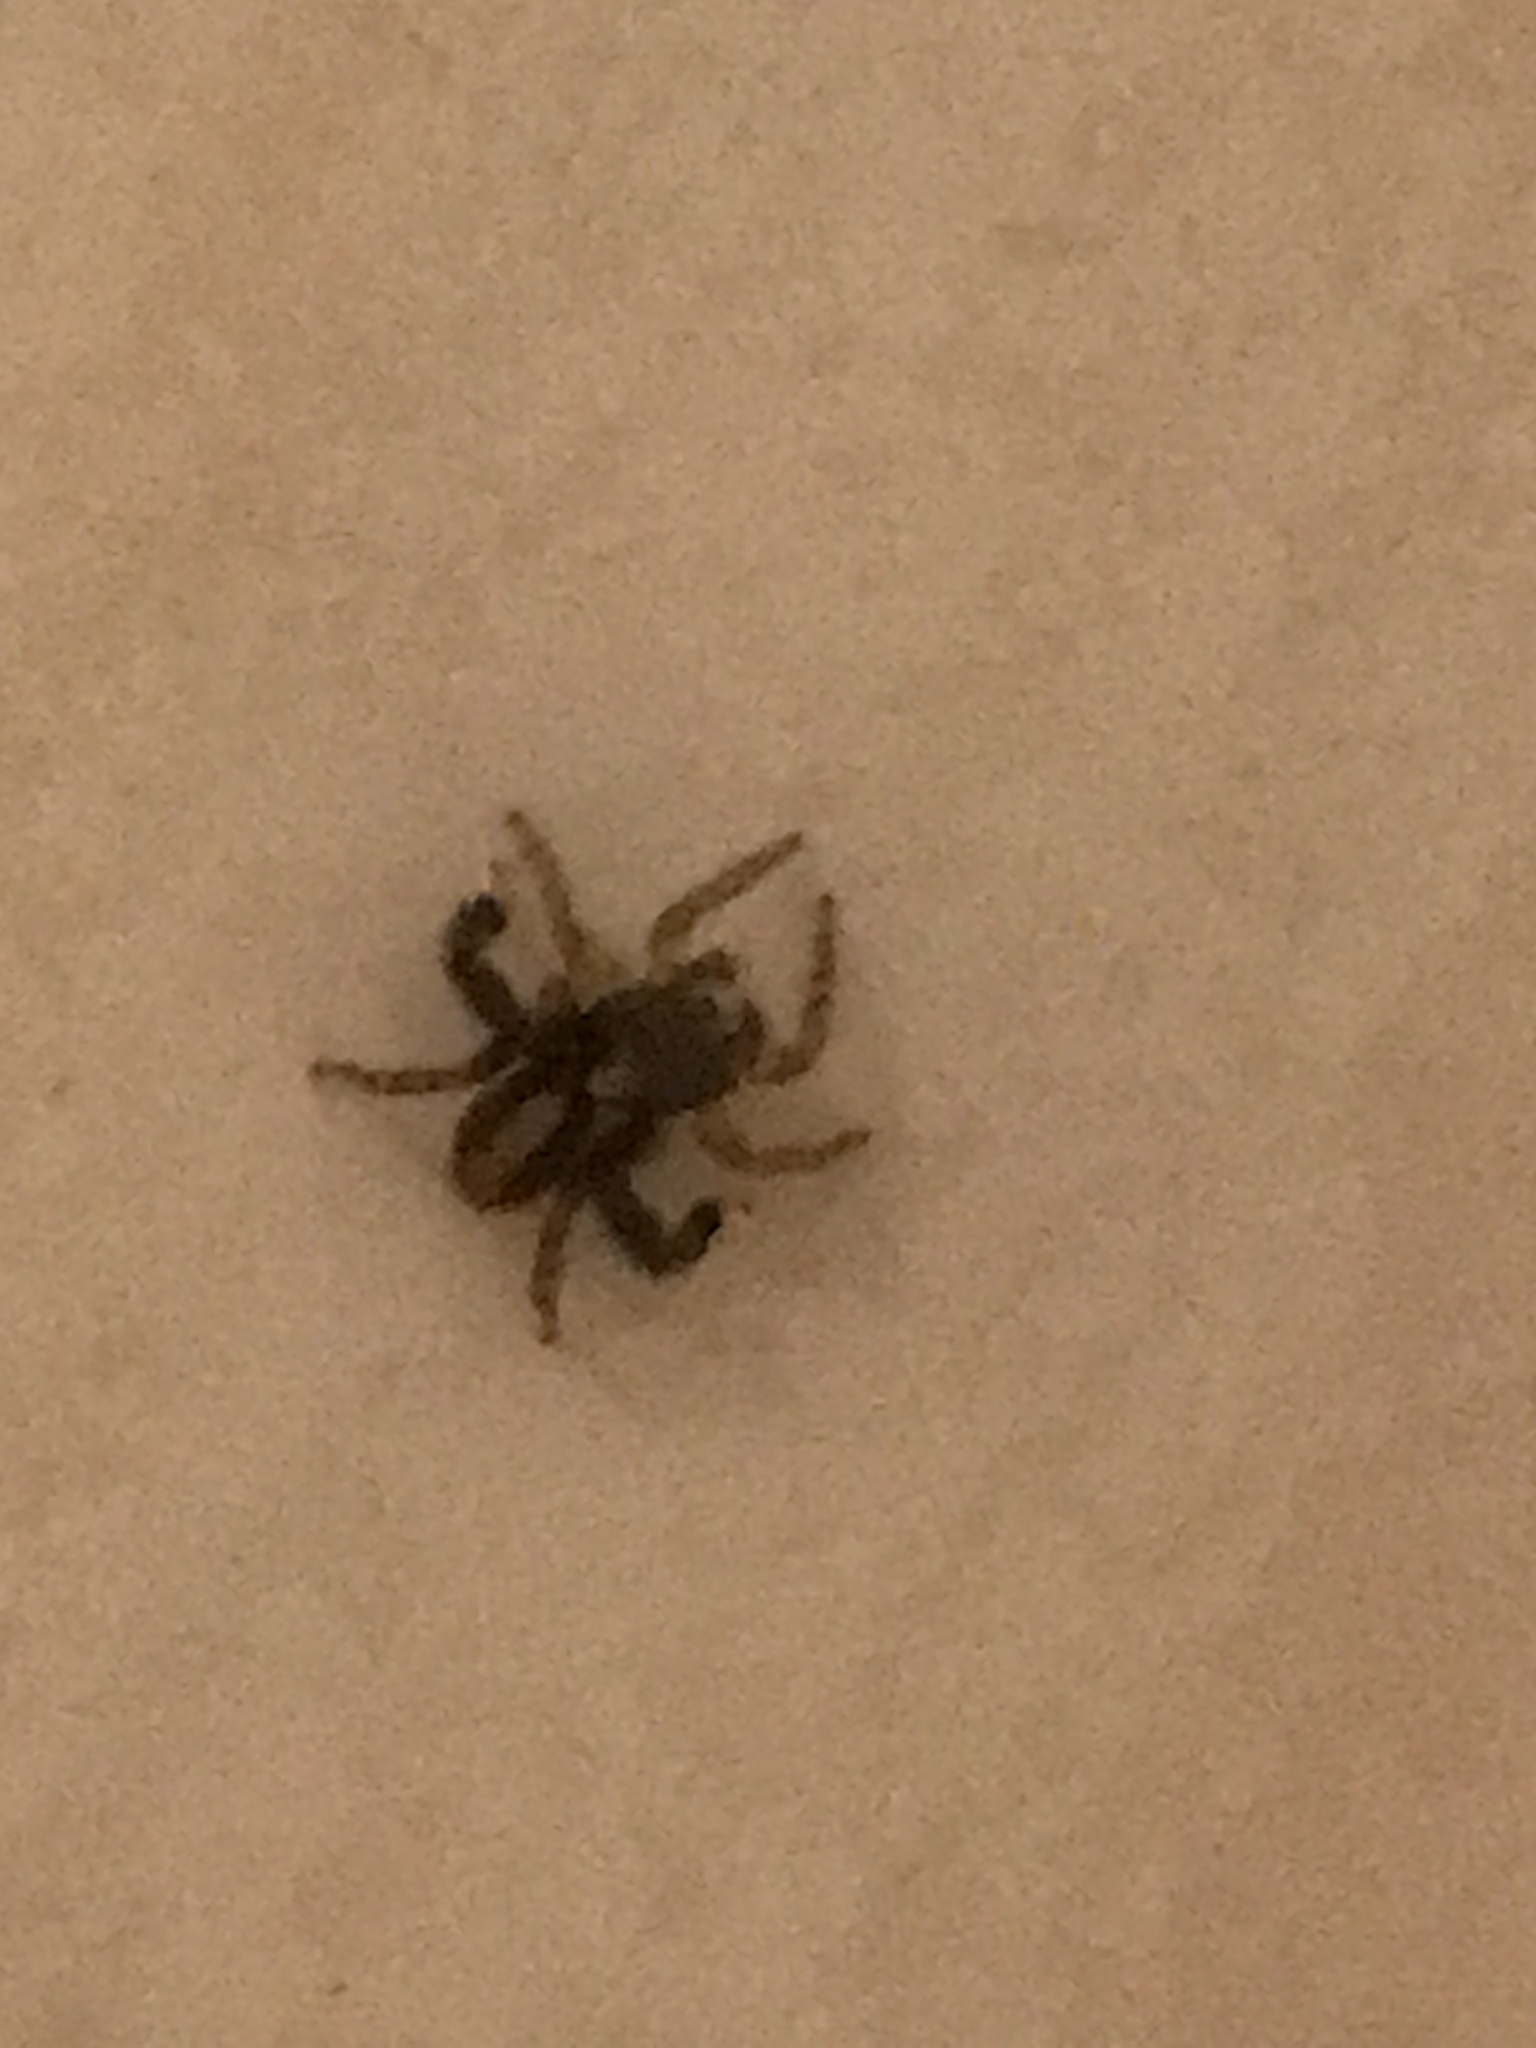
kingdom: Animalia
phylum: Arthropoda
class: Arachnida
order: Araneae
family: Salticidae
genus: Saitis
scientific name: Saitis barbipes
